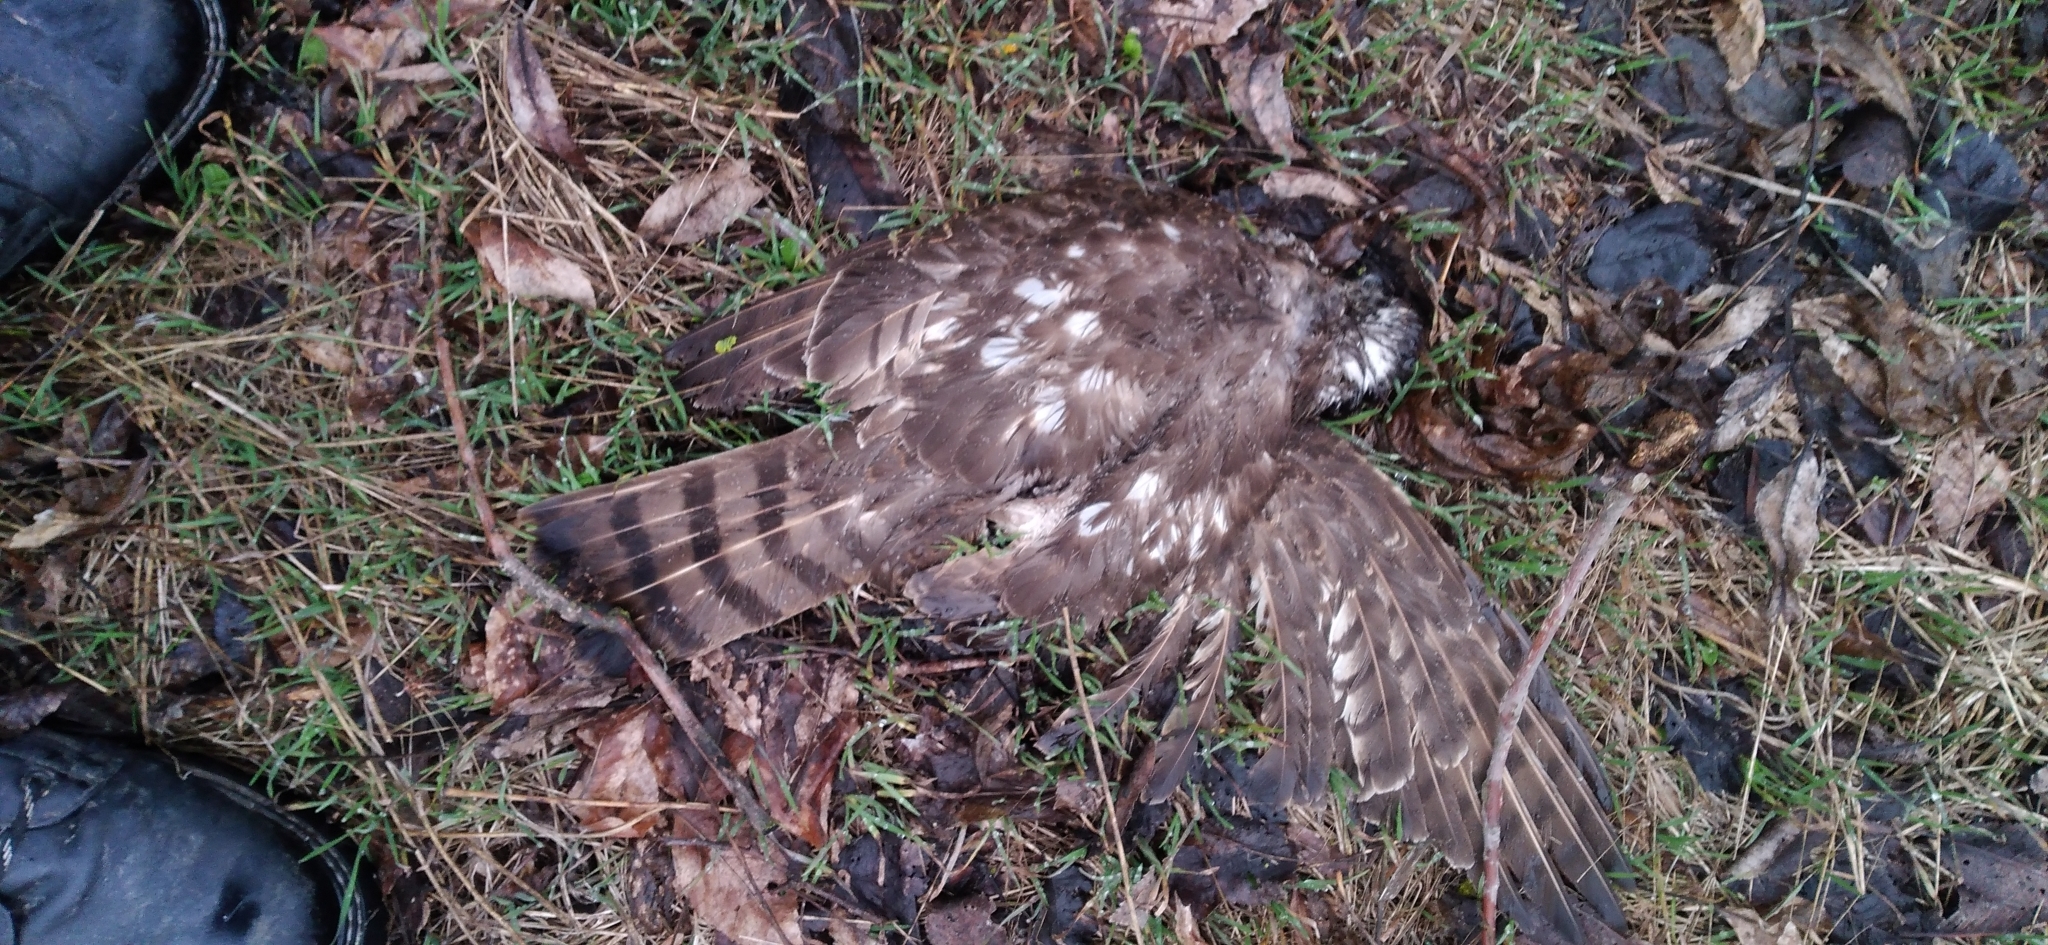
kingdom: Animalia
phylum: Chordata
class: Aves
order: Accipitriformes
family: Accipitridae
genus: Accipiter
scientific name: Accipiter nisus
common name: Eurasian sparrowhawk
